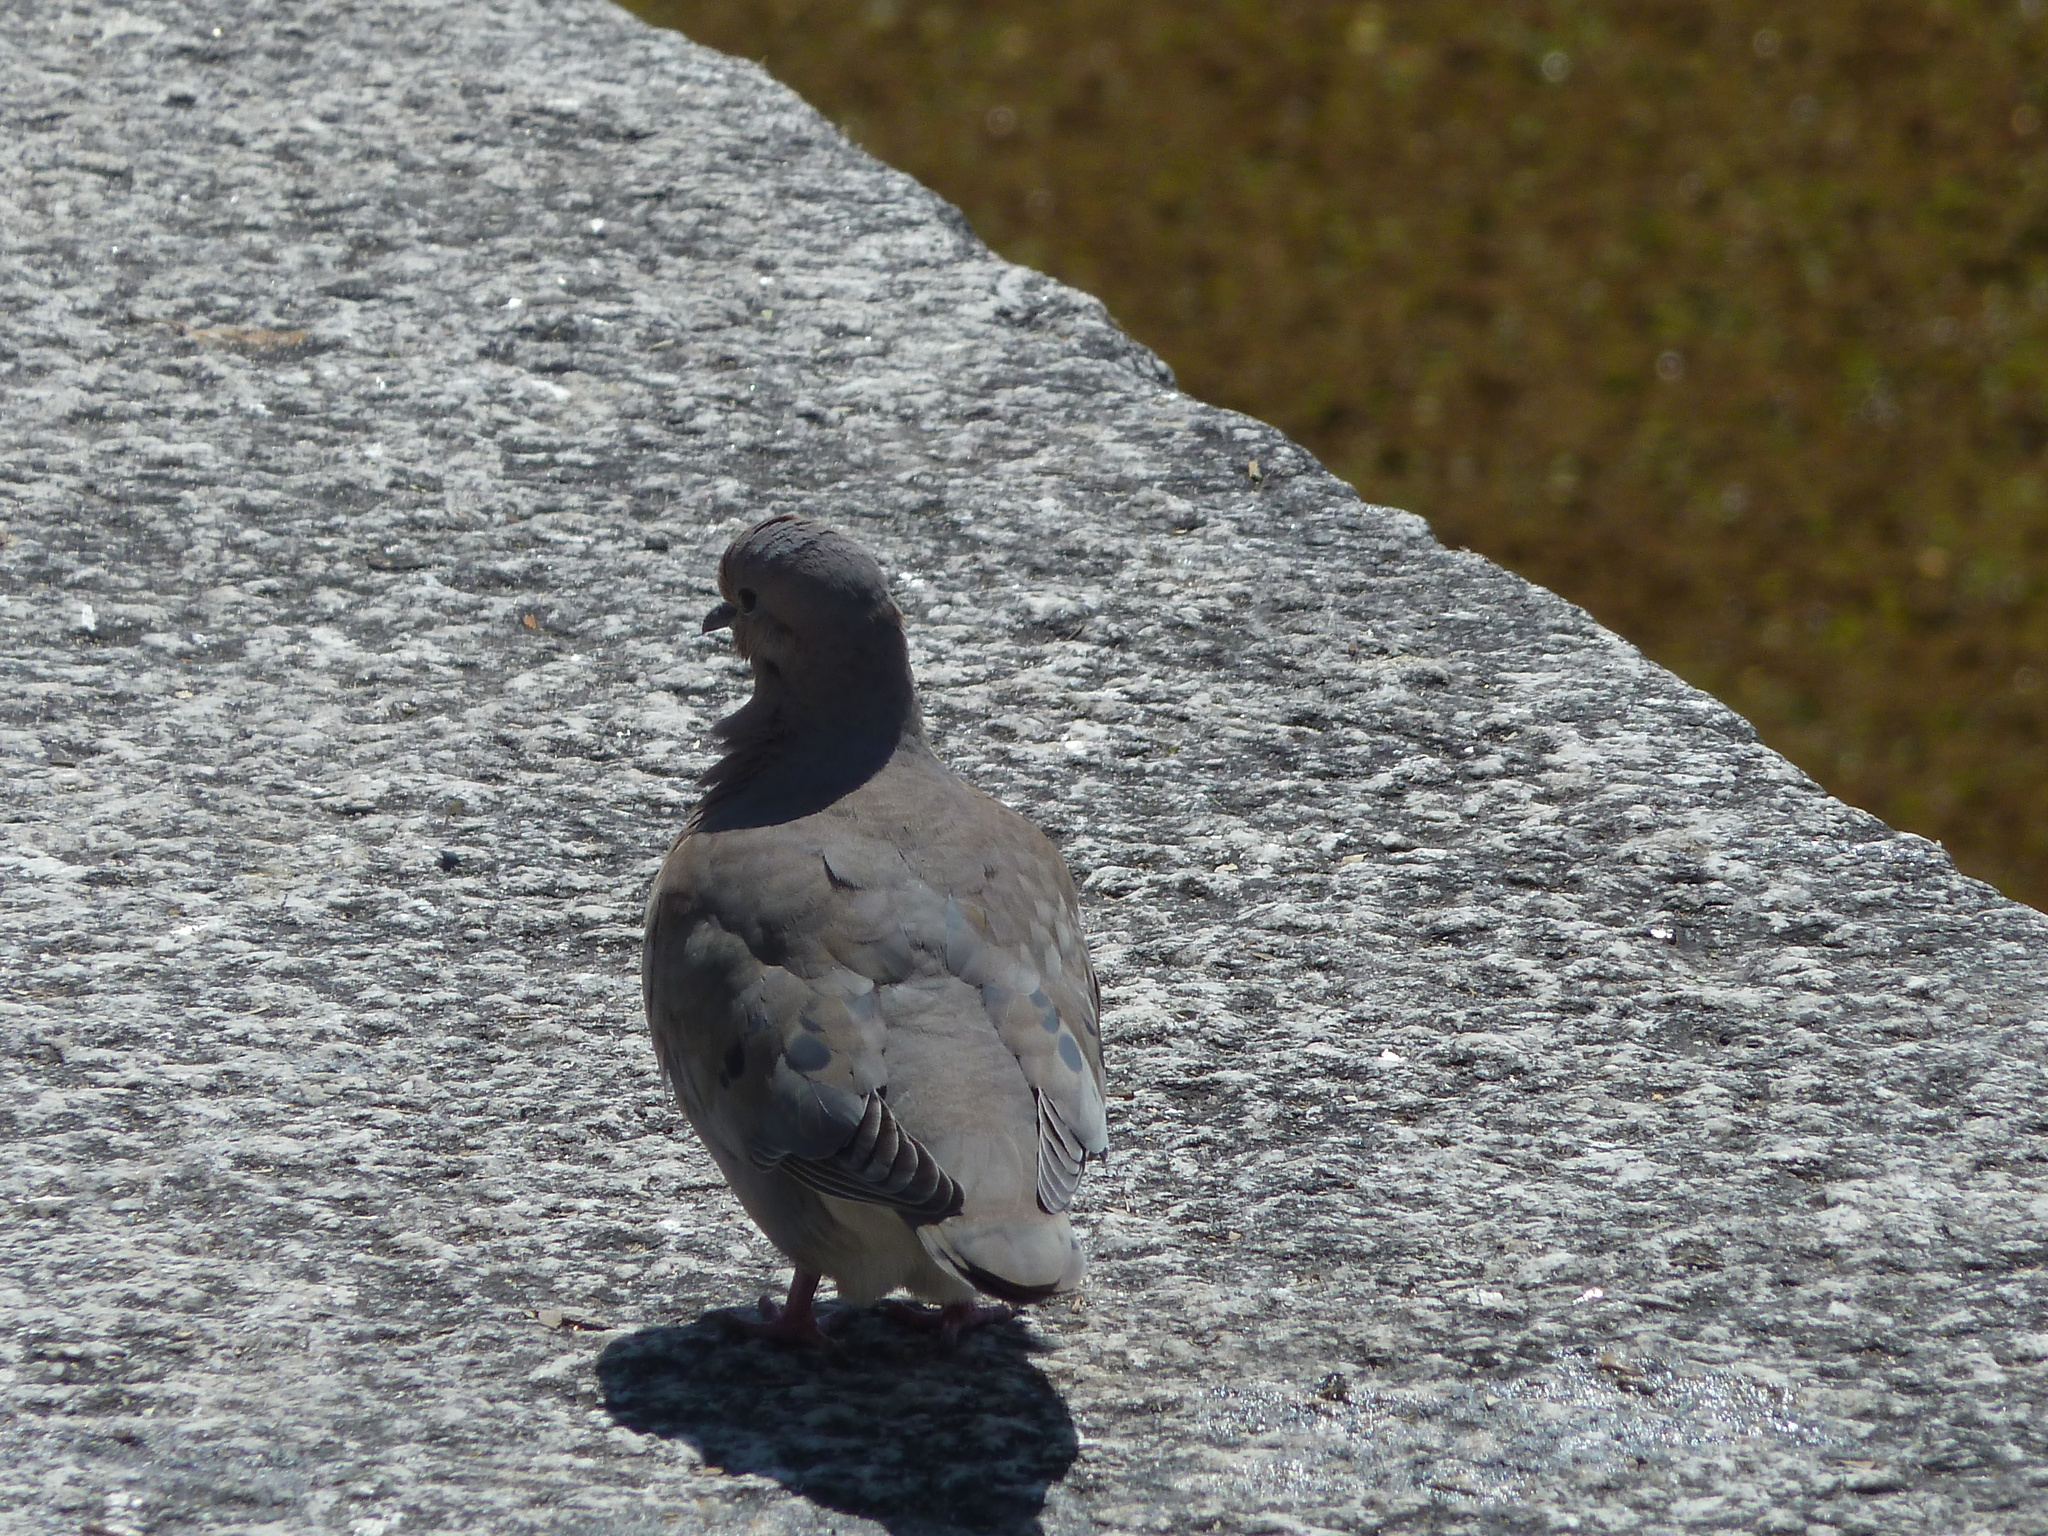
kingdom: Animalia
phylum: Chordata
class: Aves
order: Columbiformes
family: Columbidae
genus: Zenaida
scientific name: Zenaida auriculata
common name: Eared dove
